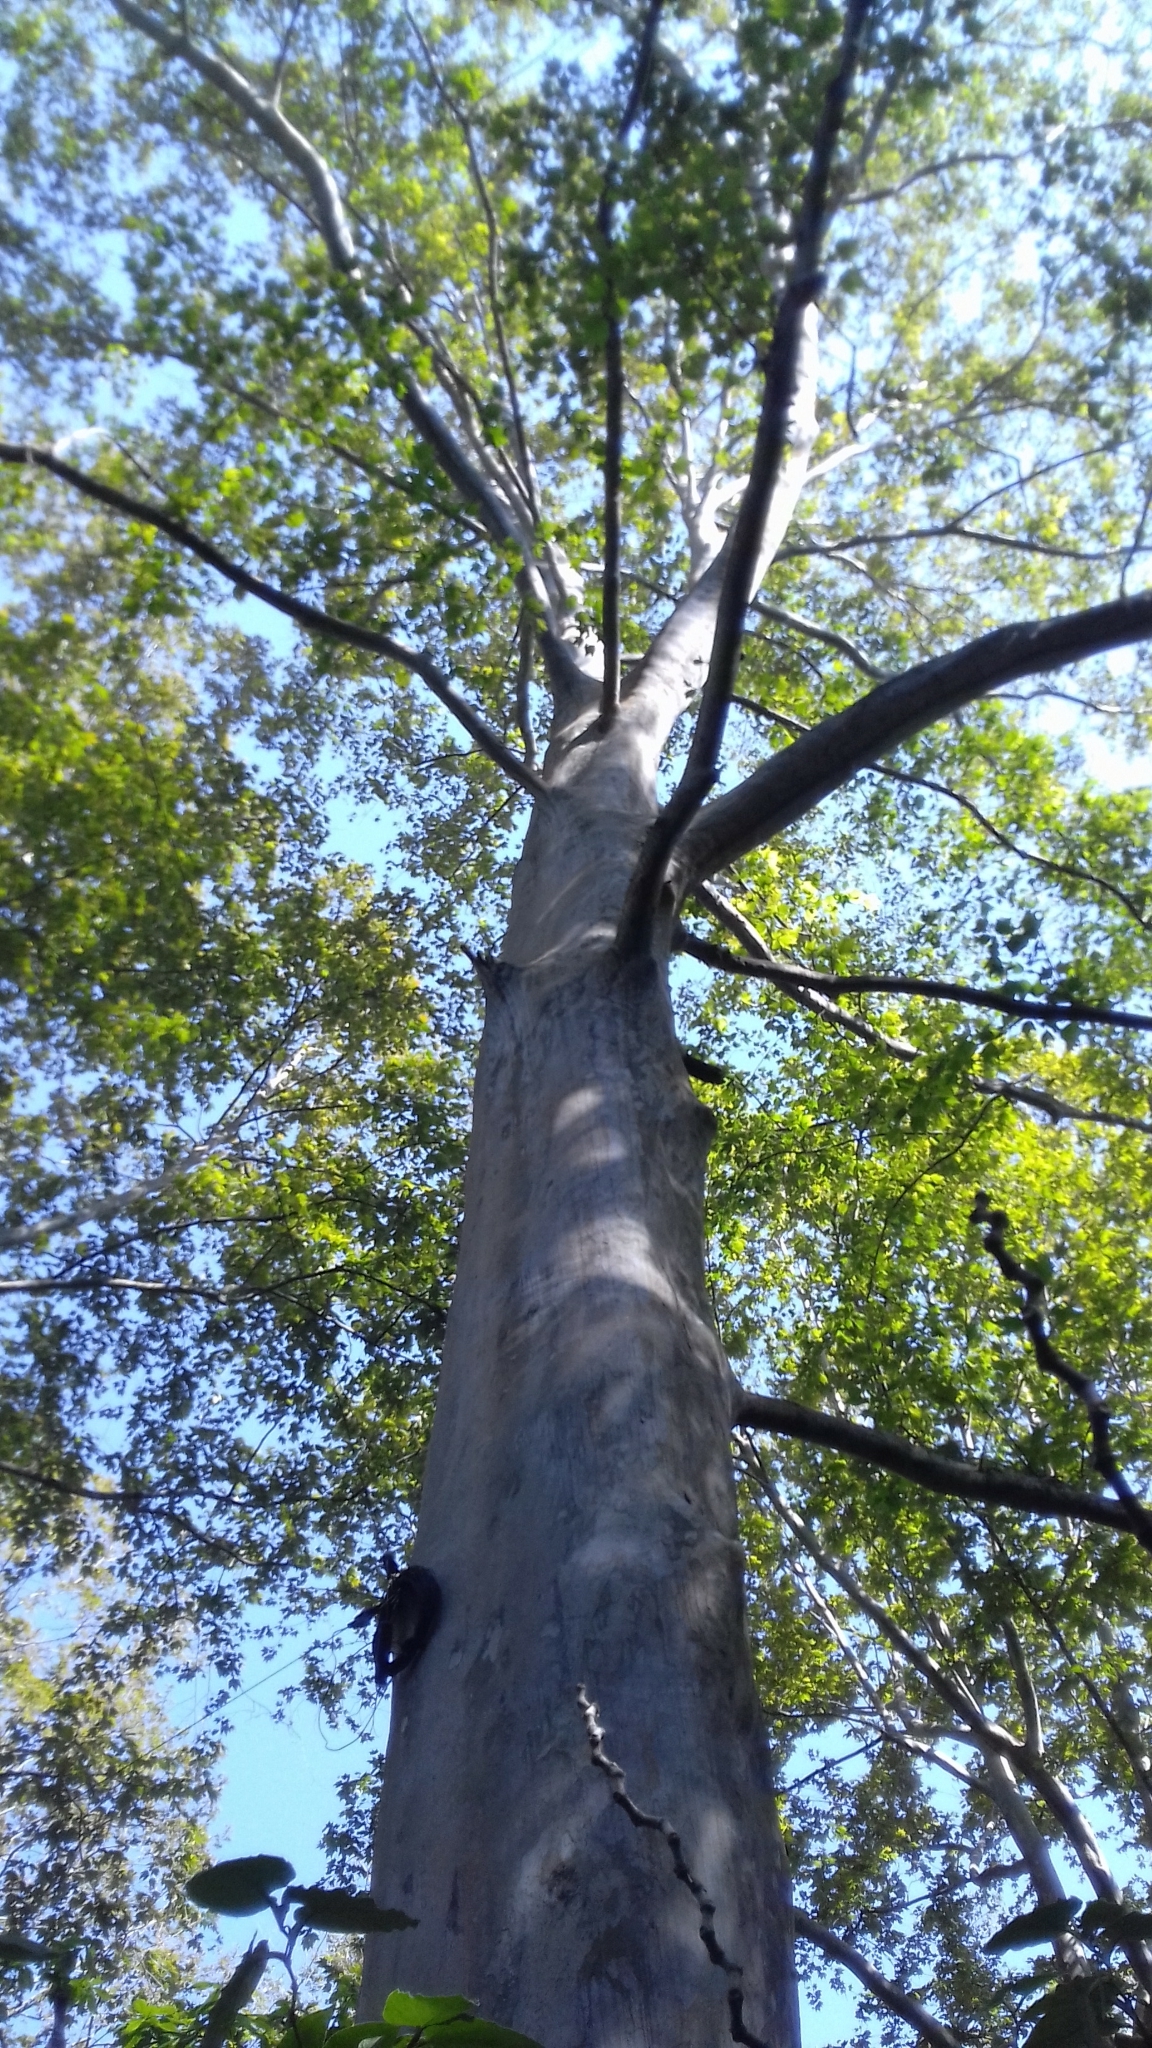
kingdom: Plantae
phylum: Tracheophyta
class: Magnoliopsida
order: Proteales
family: Platanaceae
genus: Platanus
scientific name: Platanus mexicana
